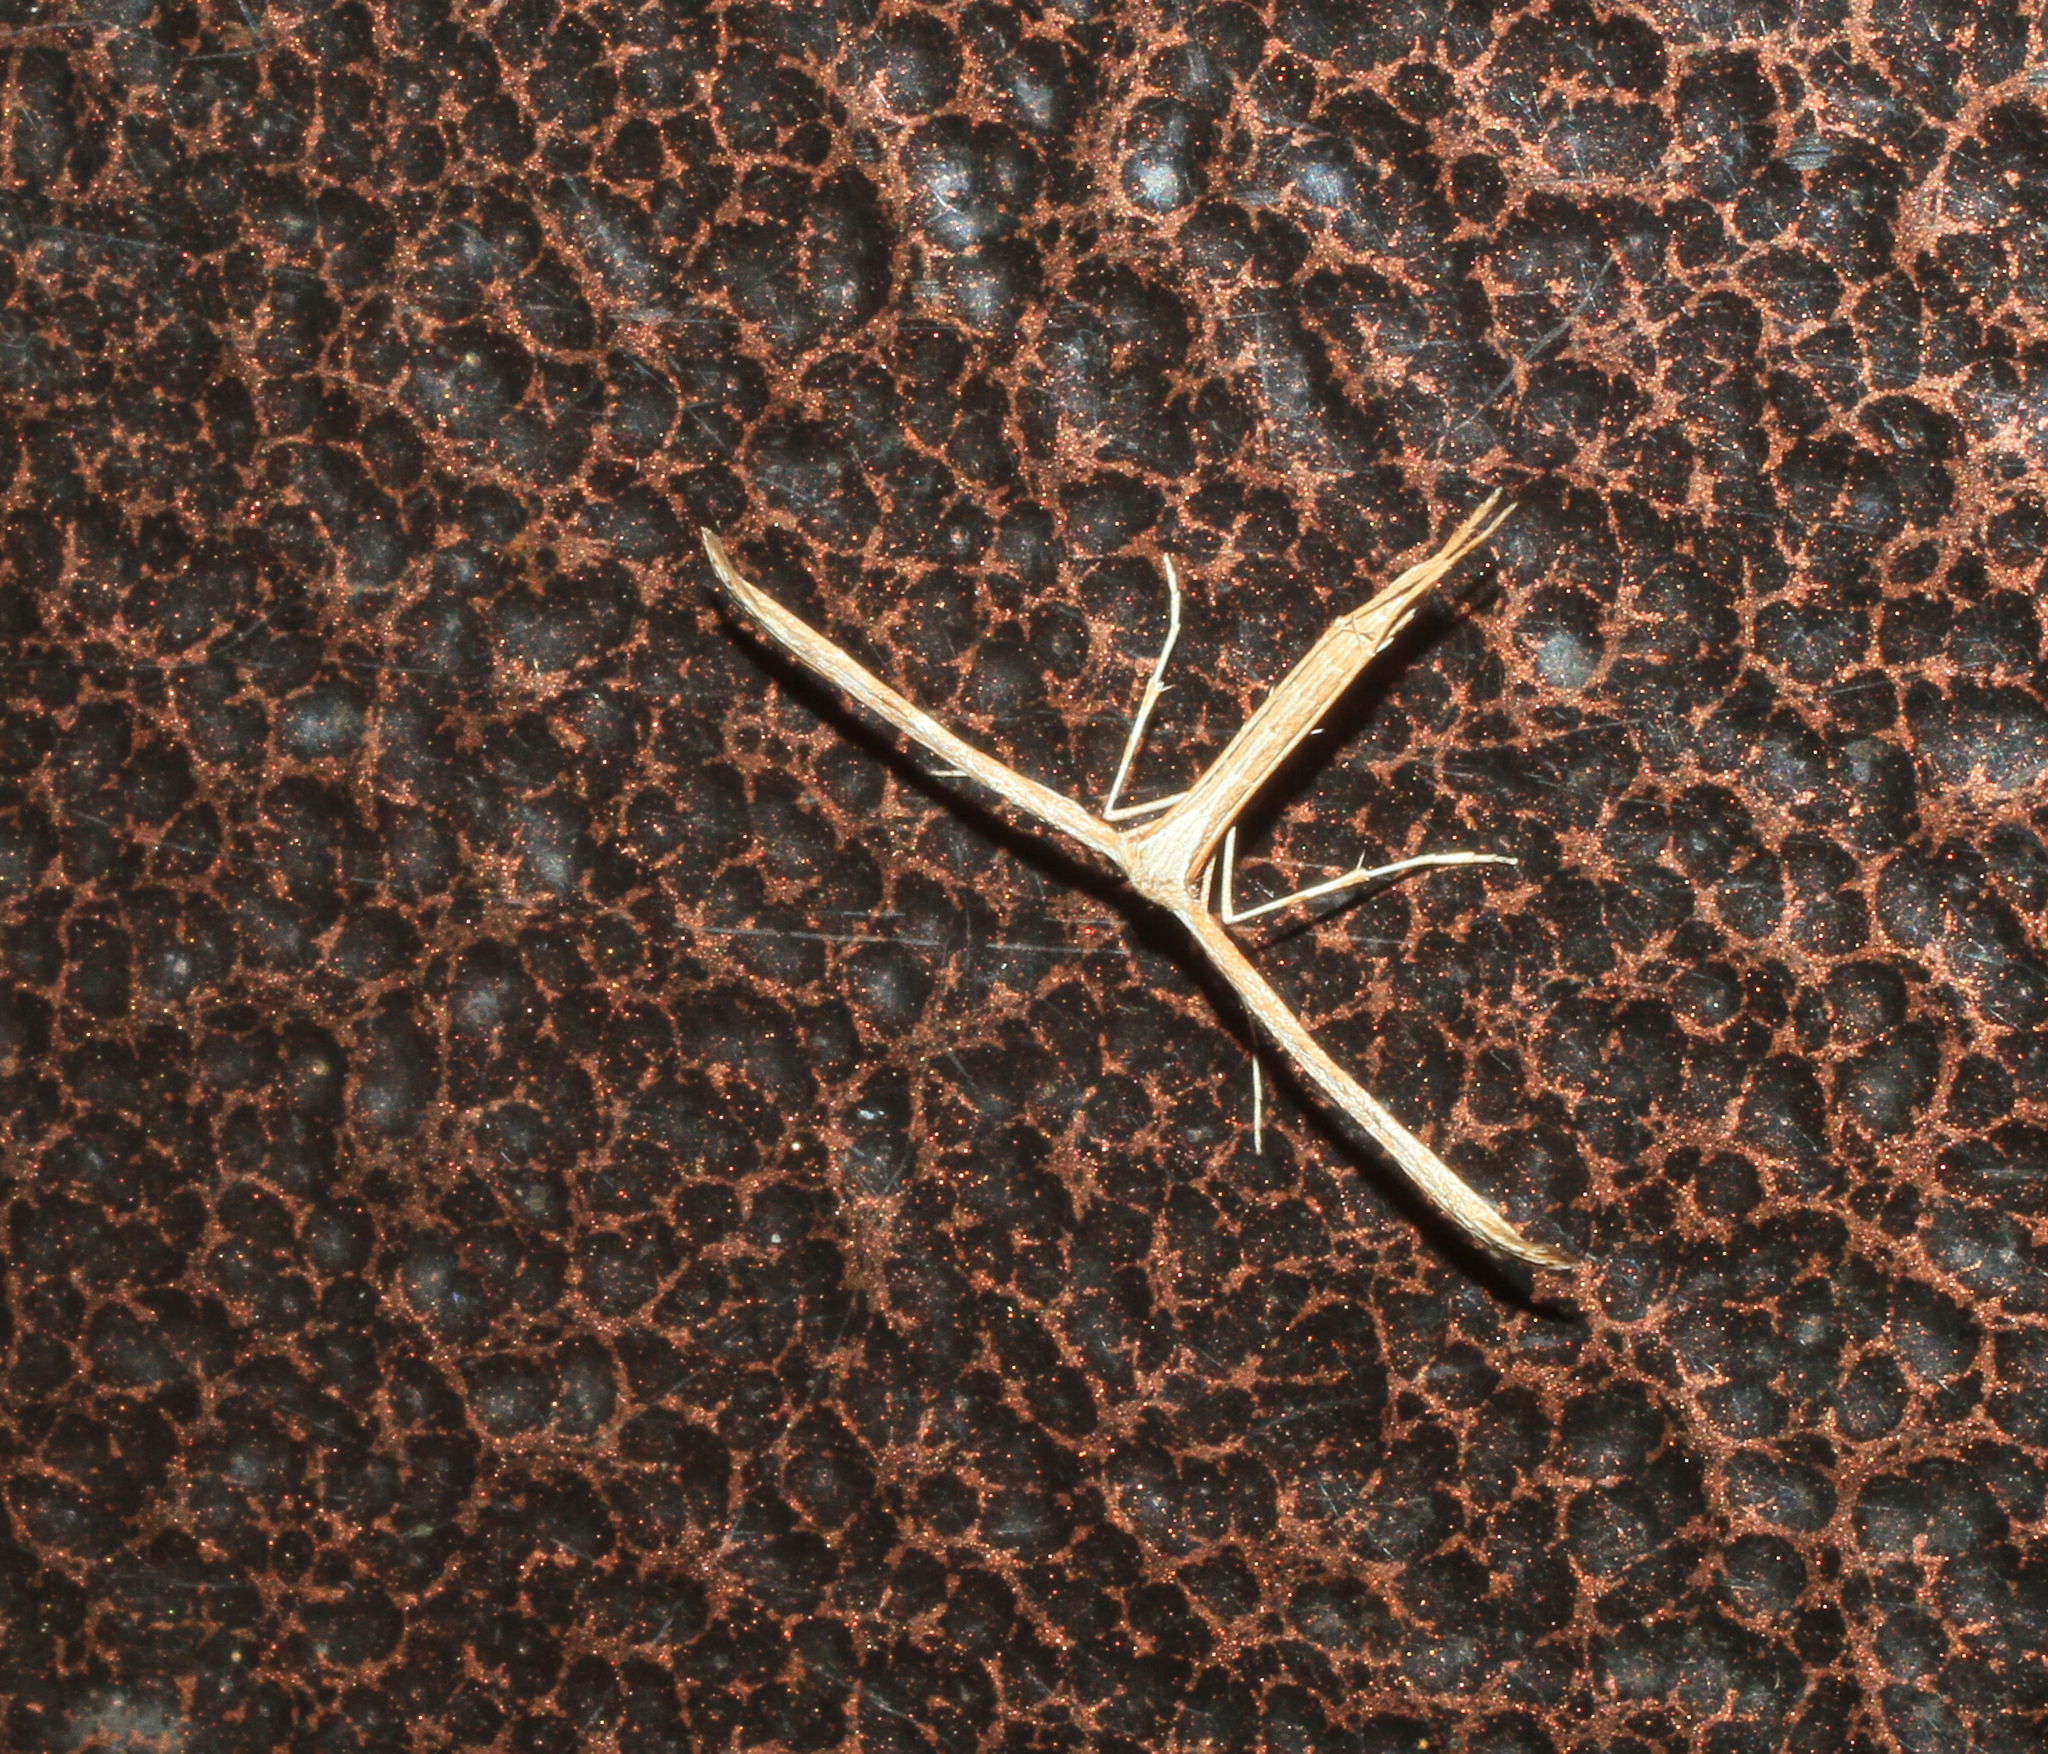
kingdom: Animalia
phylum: Arthropoda
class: Insecta
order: Lepidoptera
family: Pterophoridae
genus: Emmelina
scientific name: Emmelina monodactyla
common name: Common plume
